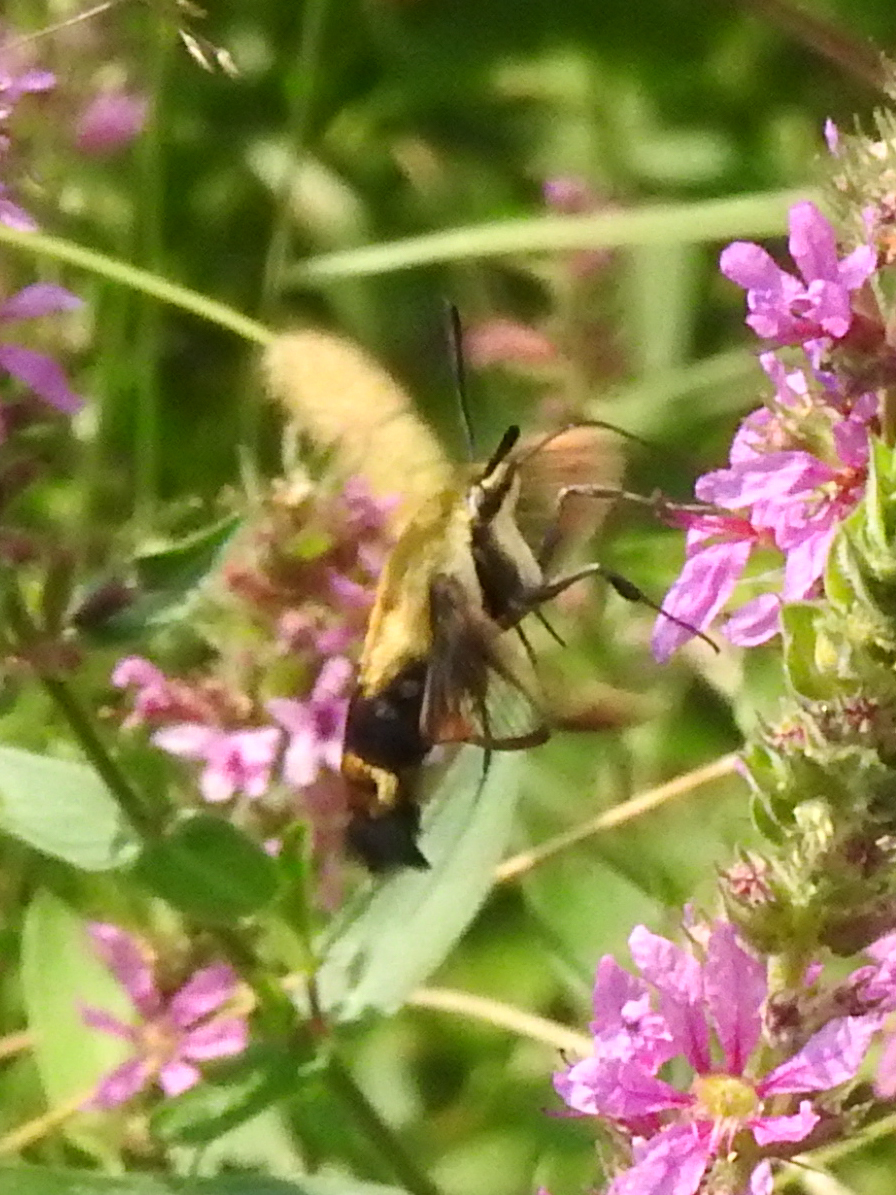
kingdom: Animalia
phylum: Arthropoda
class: Insecta
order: Lepidoptera
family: Sphingidae
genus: Hemaris
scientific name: Hemaris diffinis
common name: Bumblebee moth
